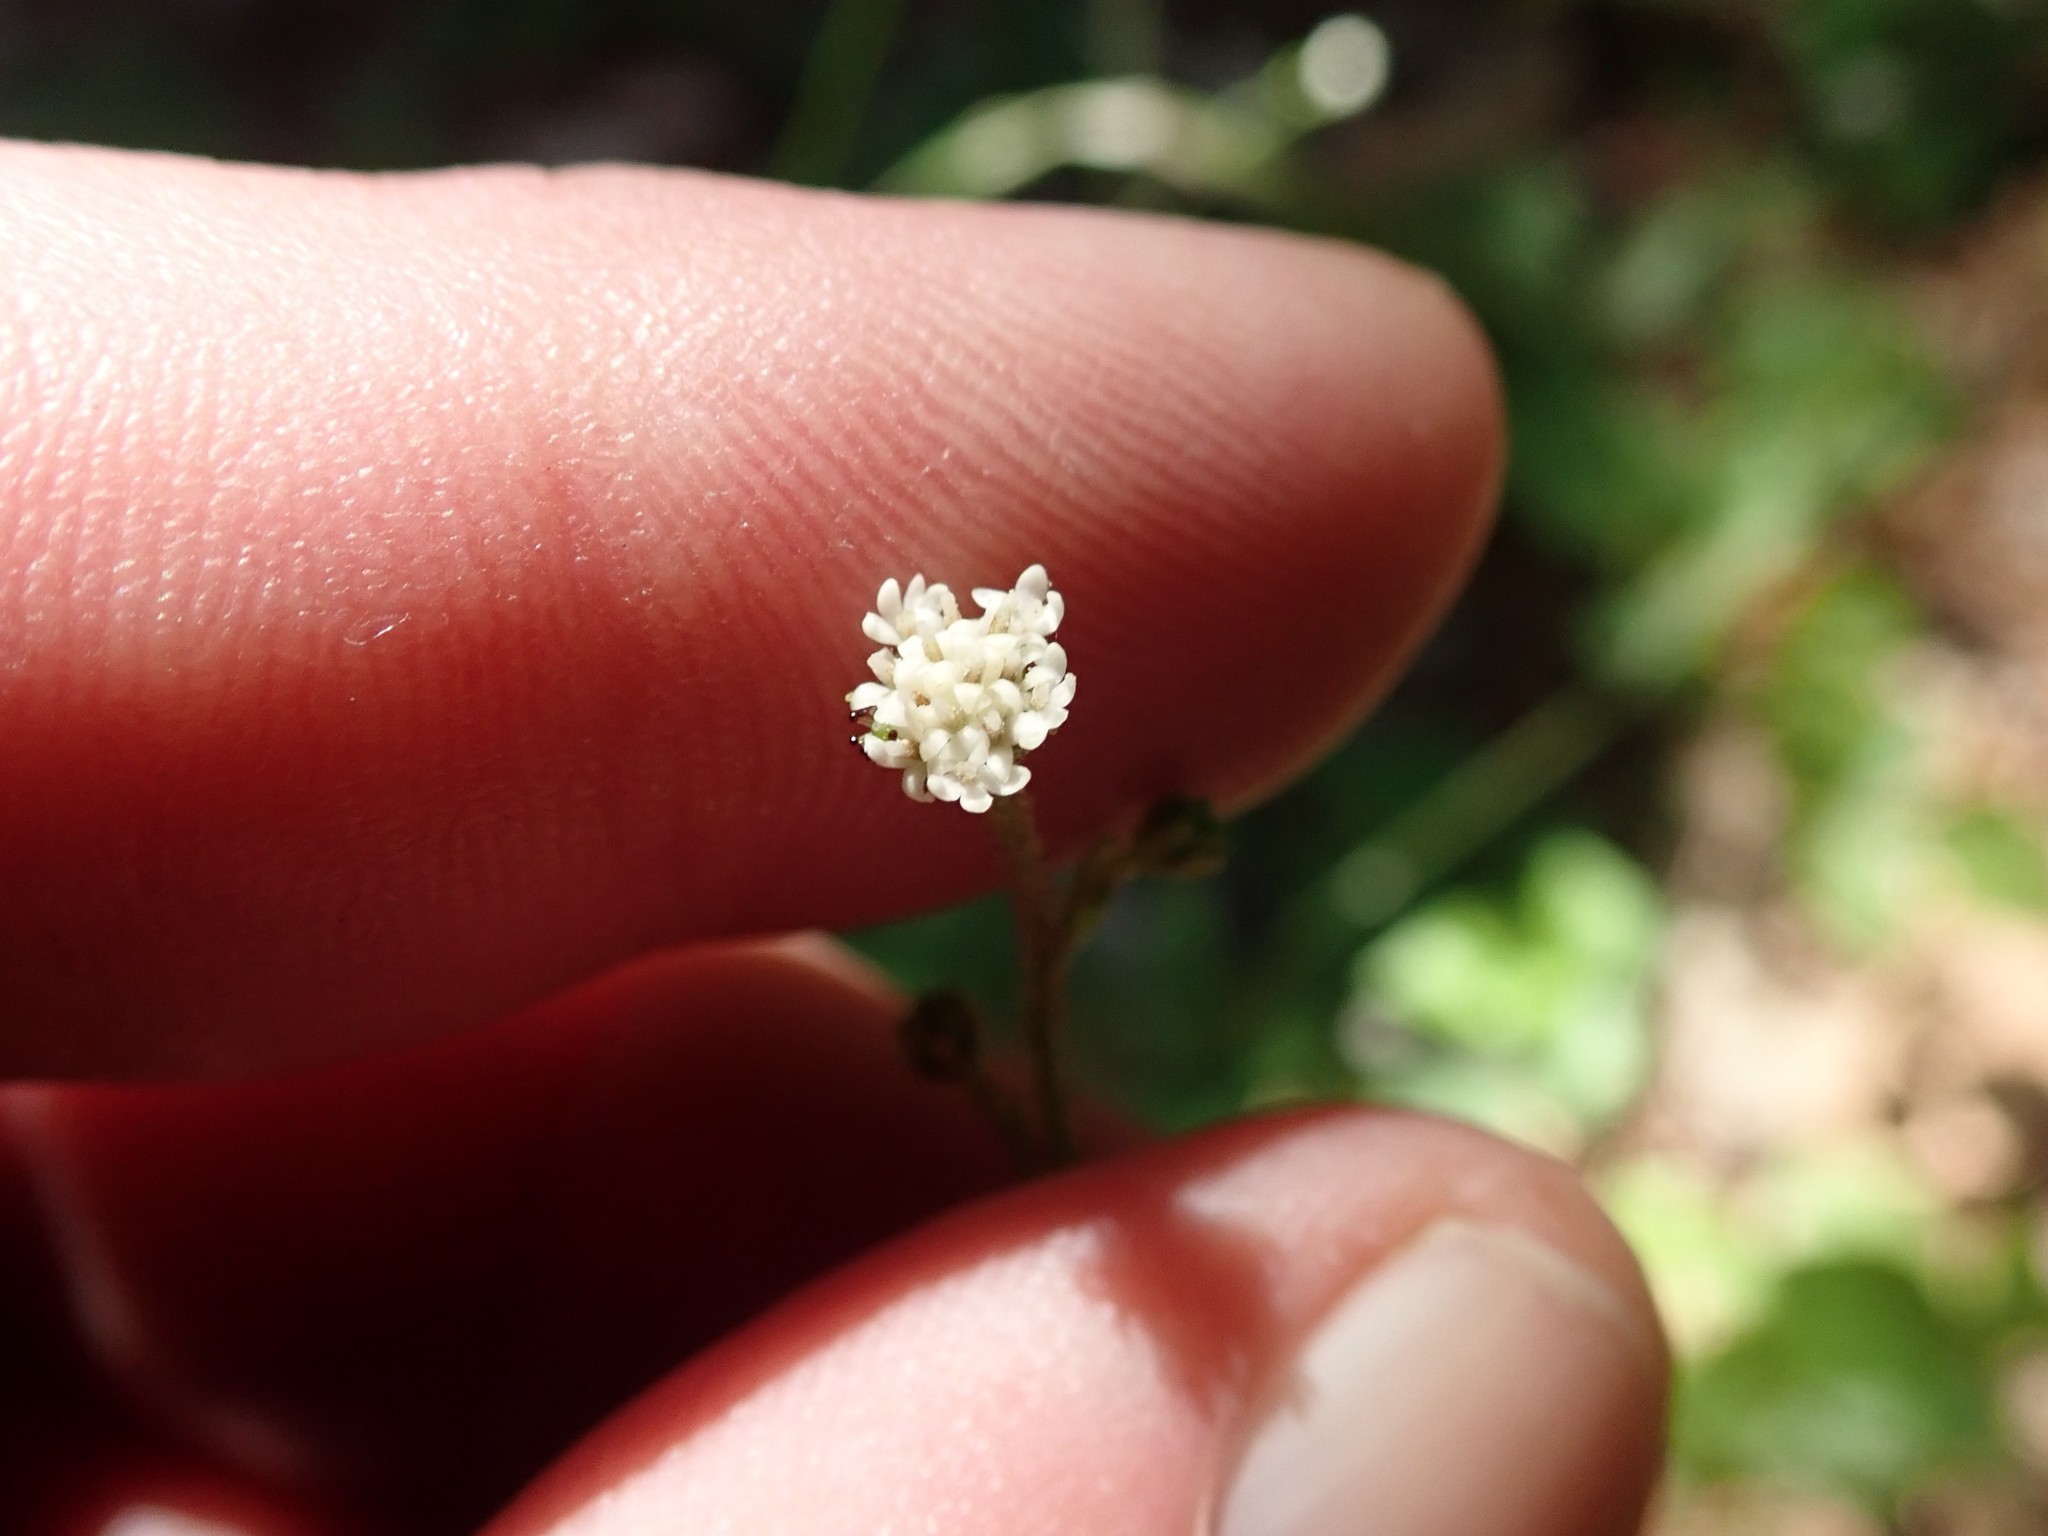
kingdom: Plantae
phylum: Tracheophyta
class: Magnoliopsida
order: Asterales
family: Asteraceae
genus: Adenocaulon
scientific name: Adenocaulon bicolor
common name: Trailplant
